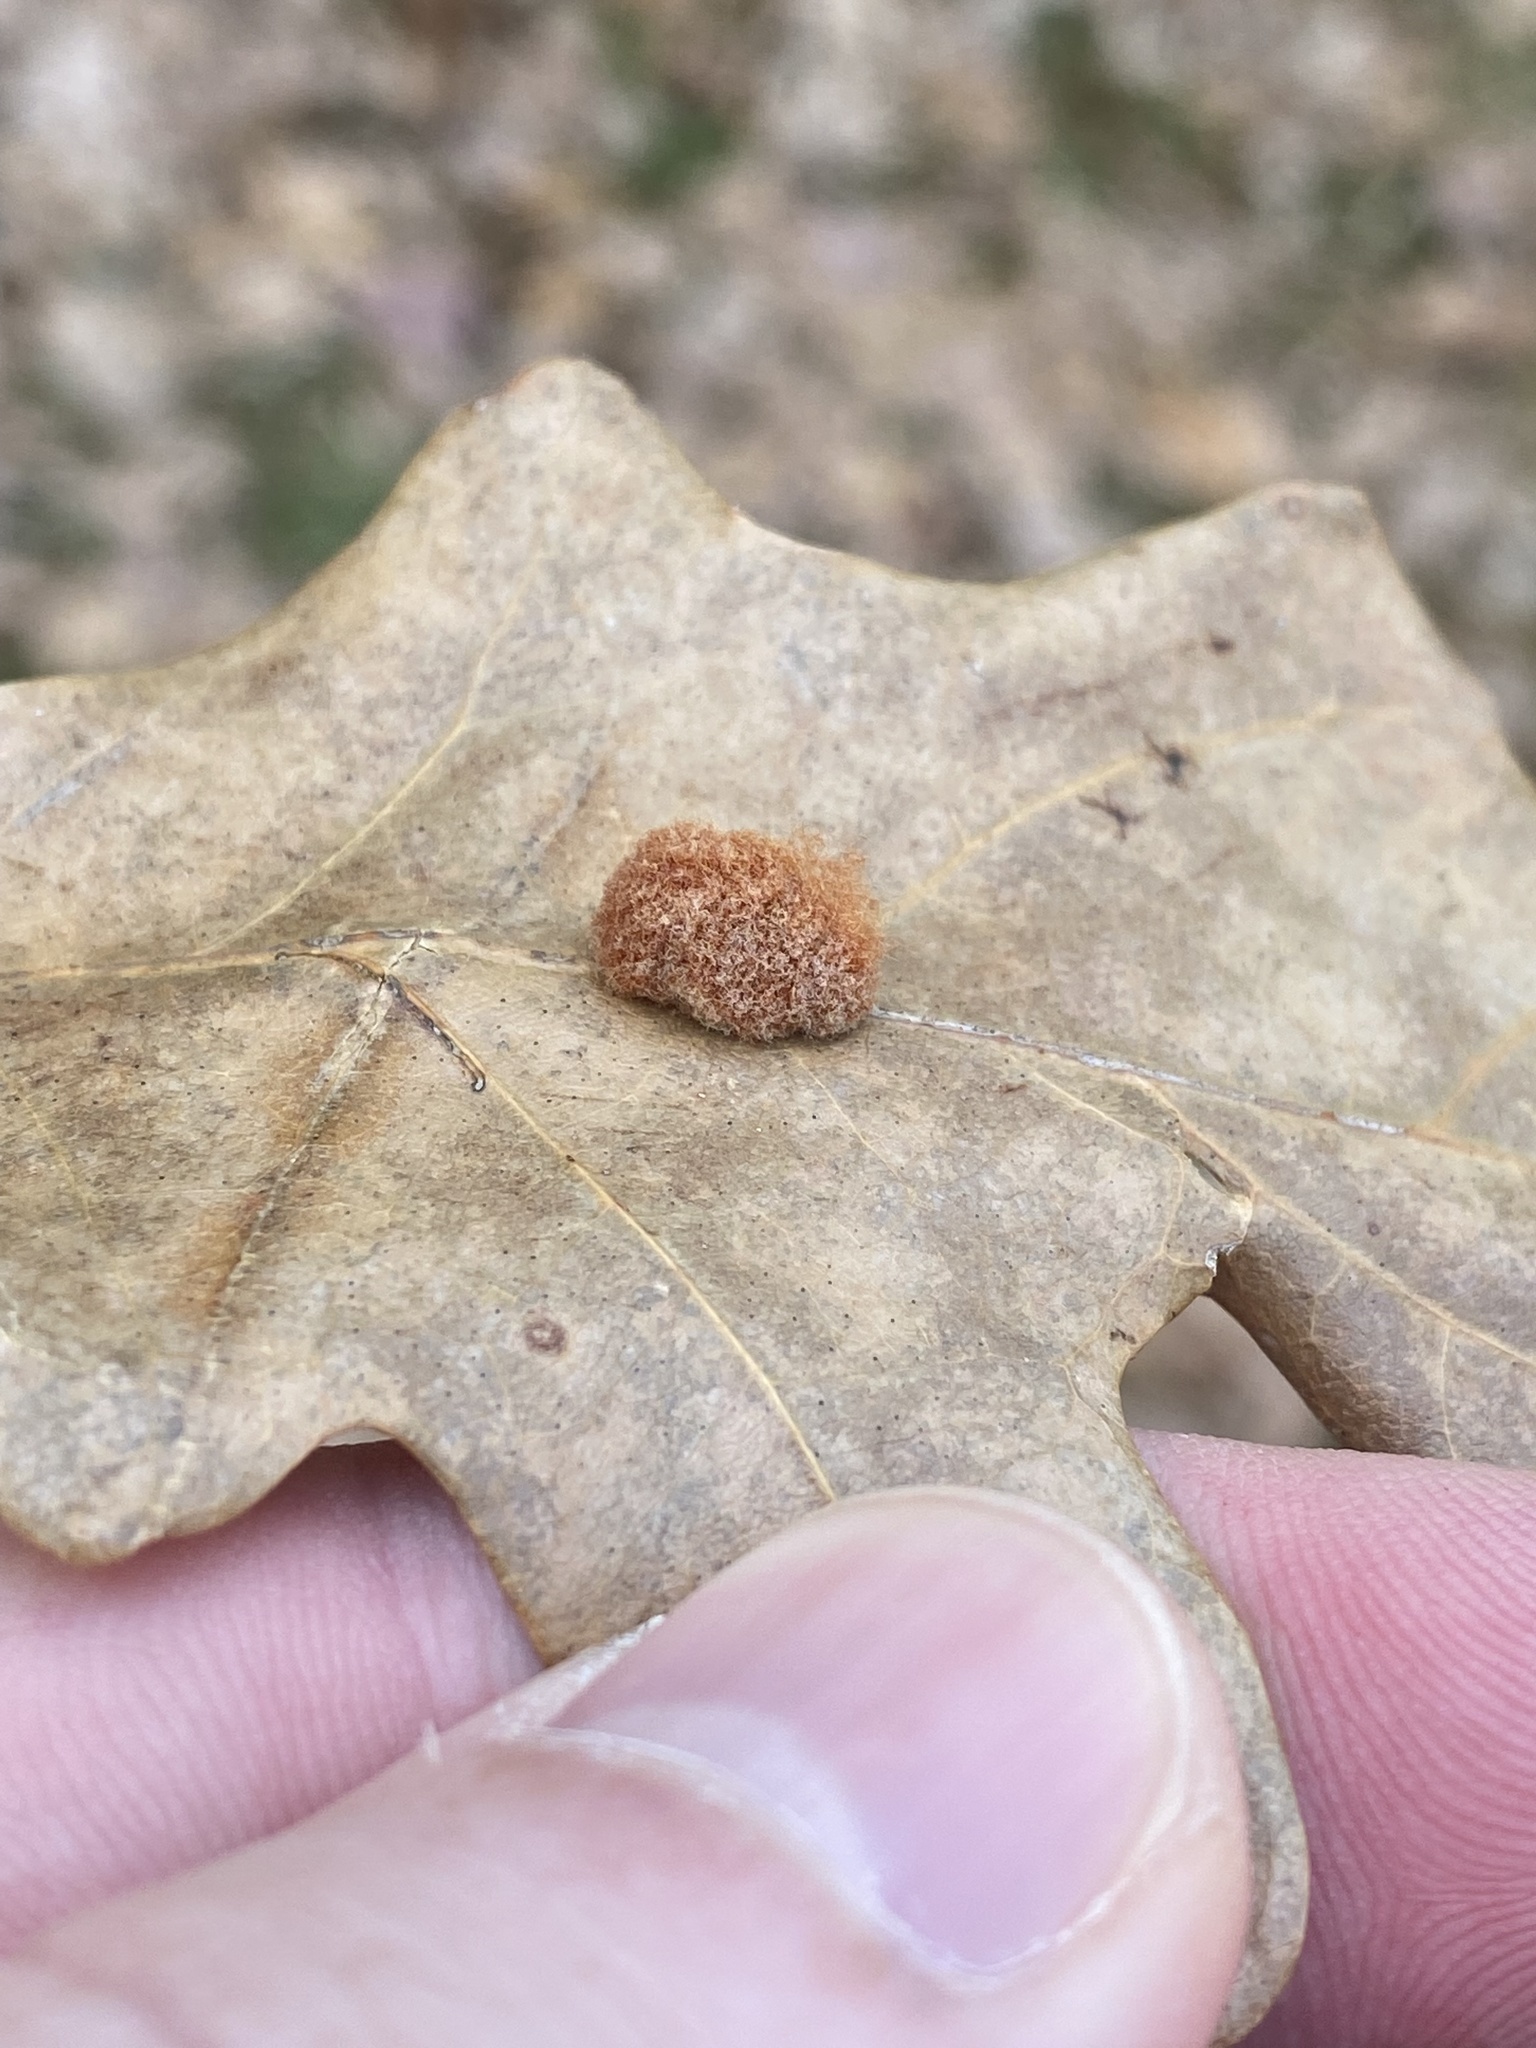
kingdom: Animalia
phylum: Arthropoda
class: Insecta
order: Hymenoptera
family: Cynipidae
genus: Andricus
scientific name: Andricus quercusflocci
